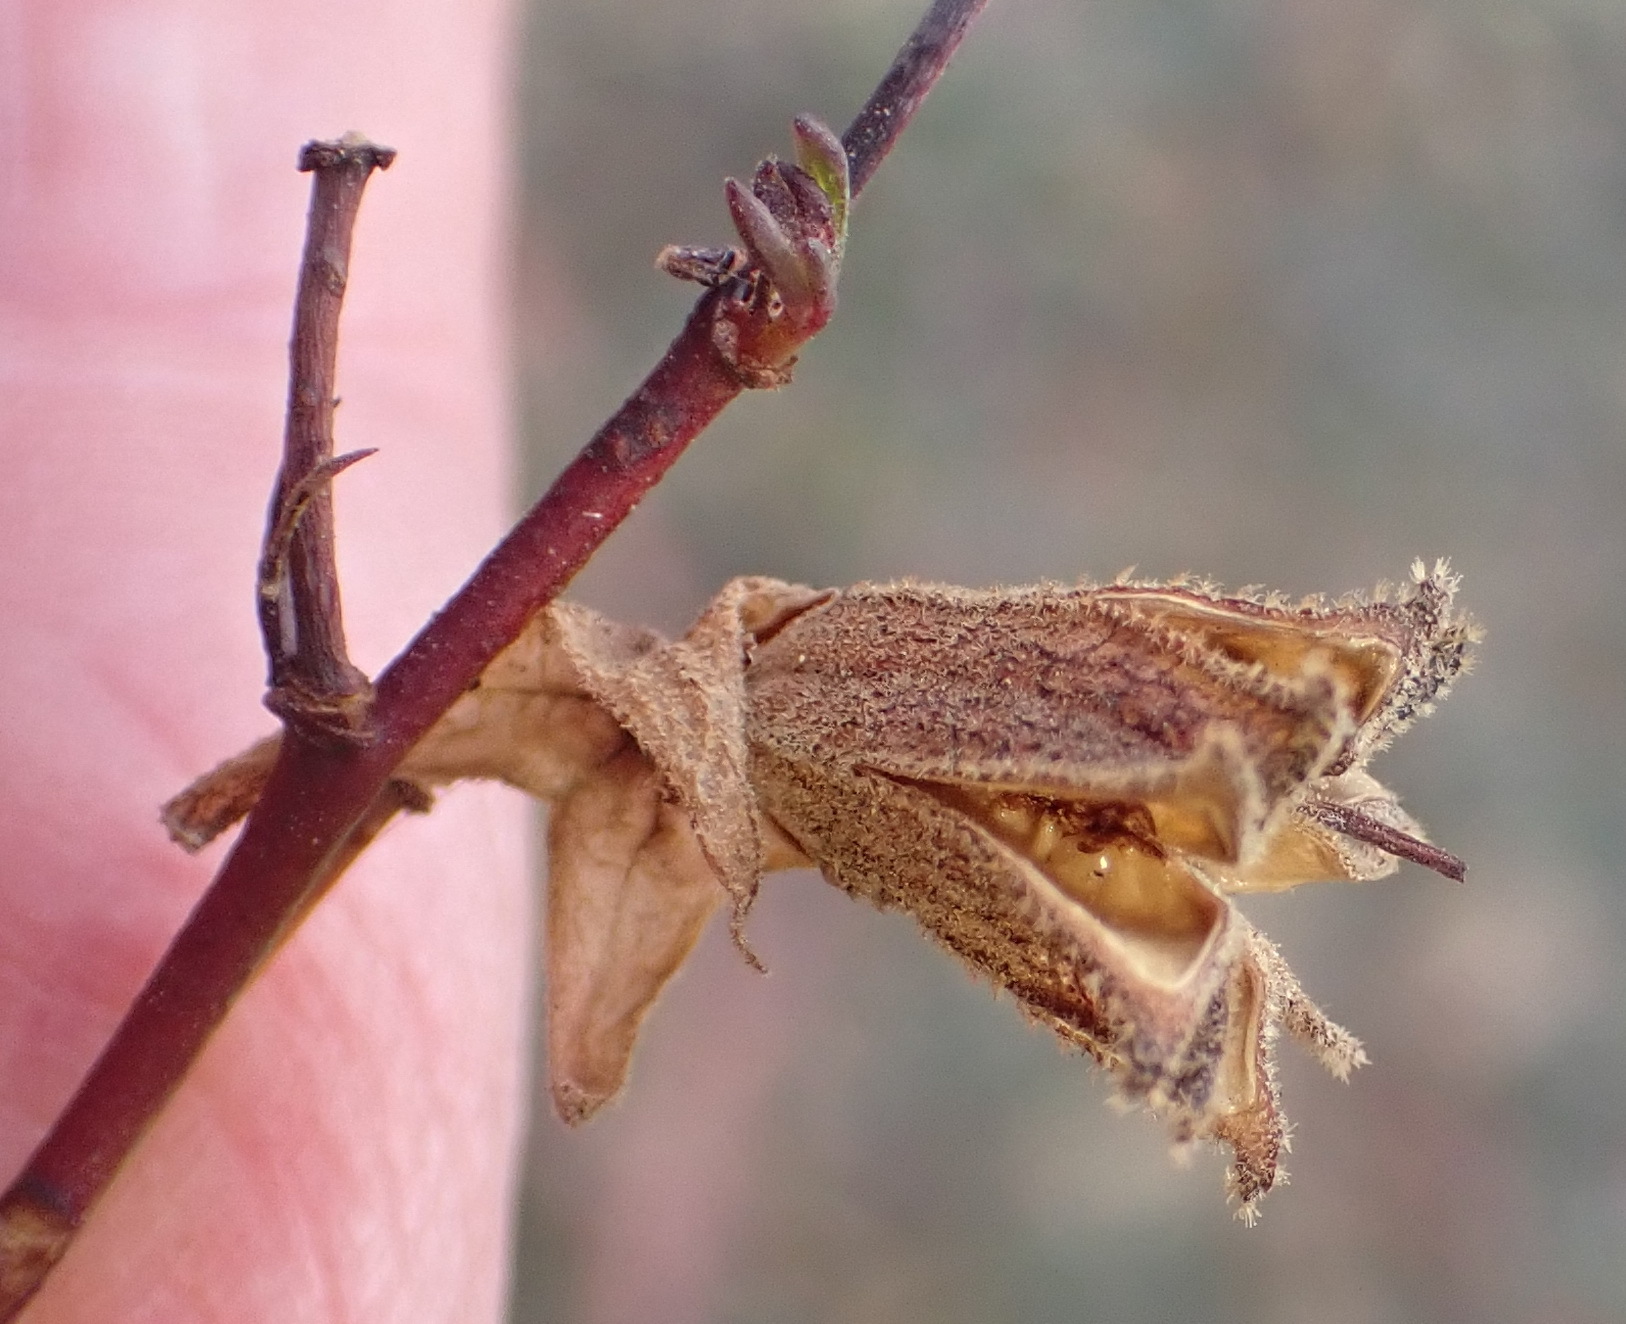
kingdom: Plantae
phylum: Tracheophyta
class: Magnoliopsida
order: Malvales
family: Malvaceae
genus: Hermannia
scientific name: Hermannia filifolia
